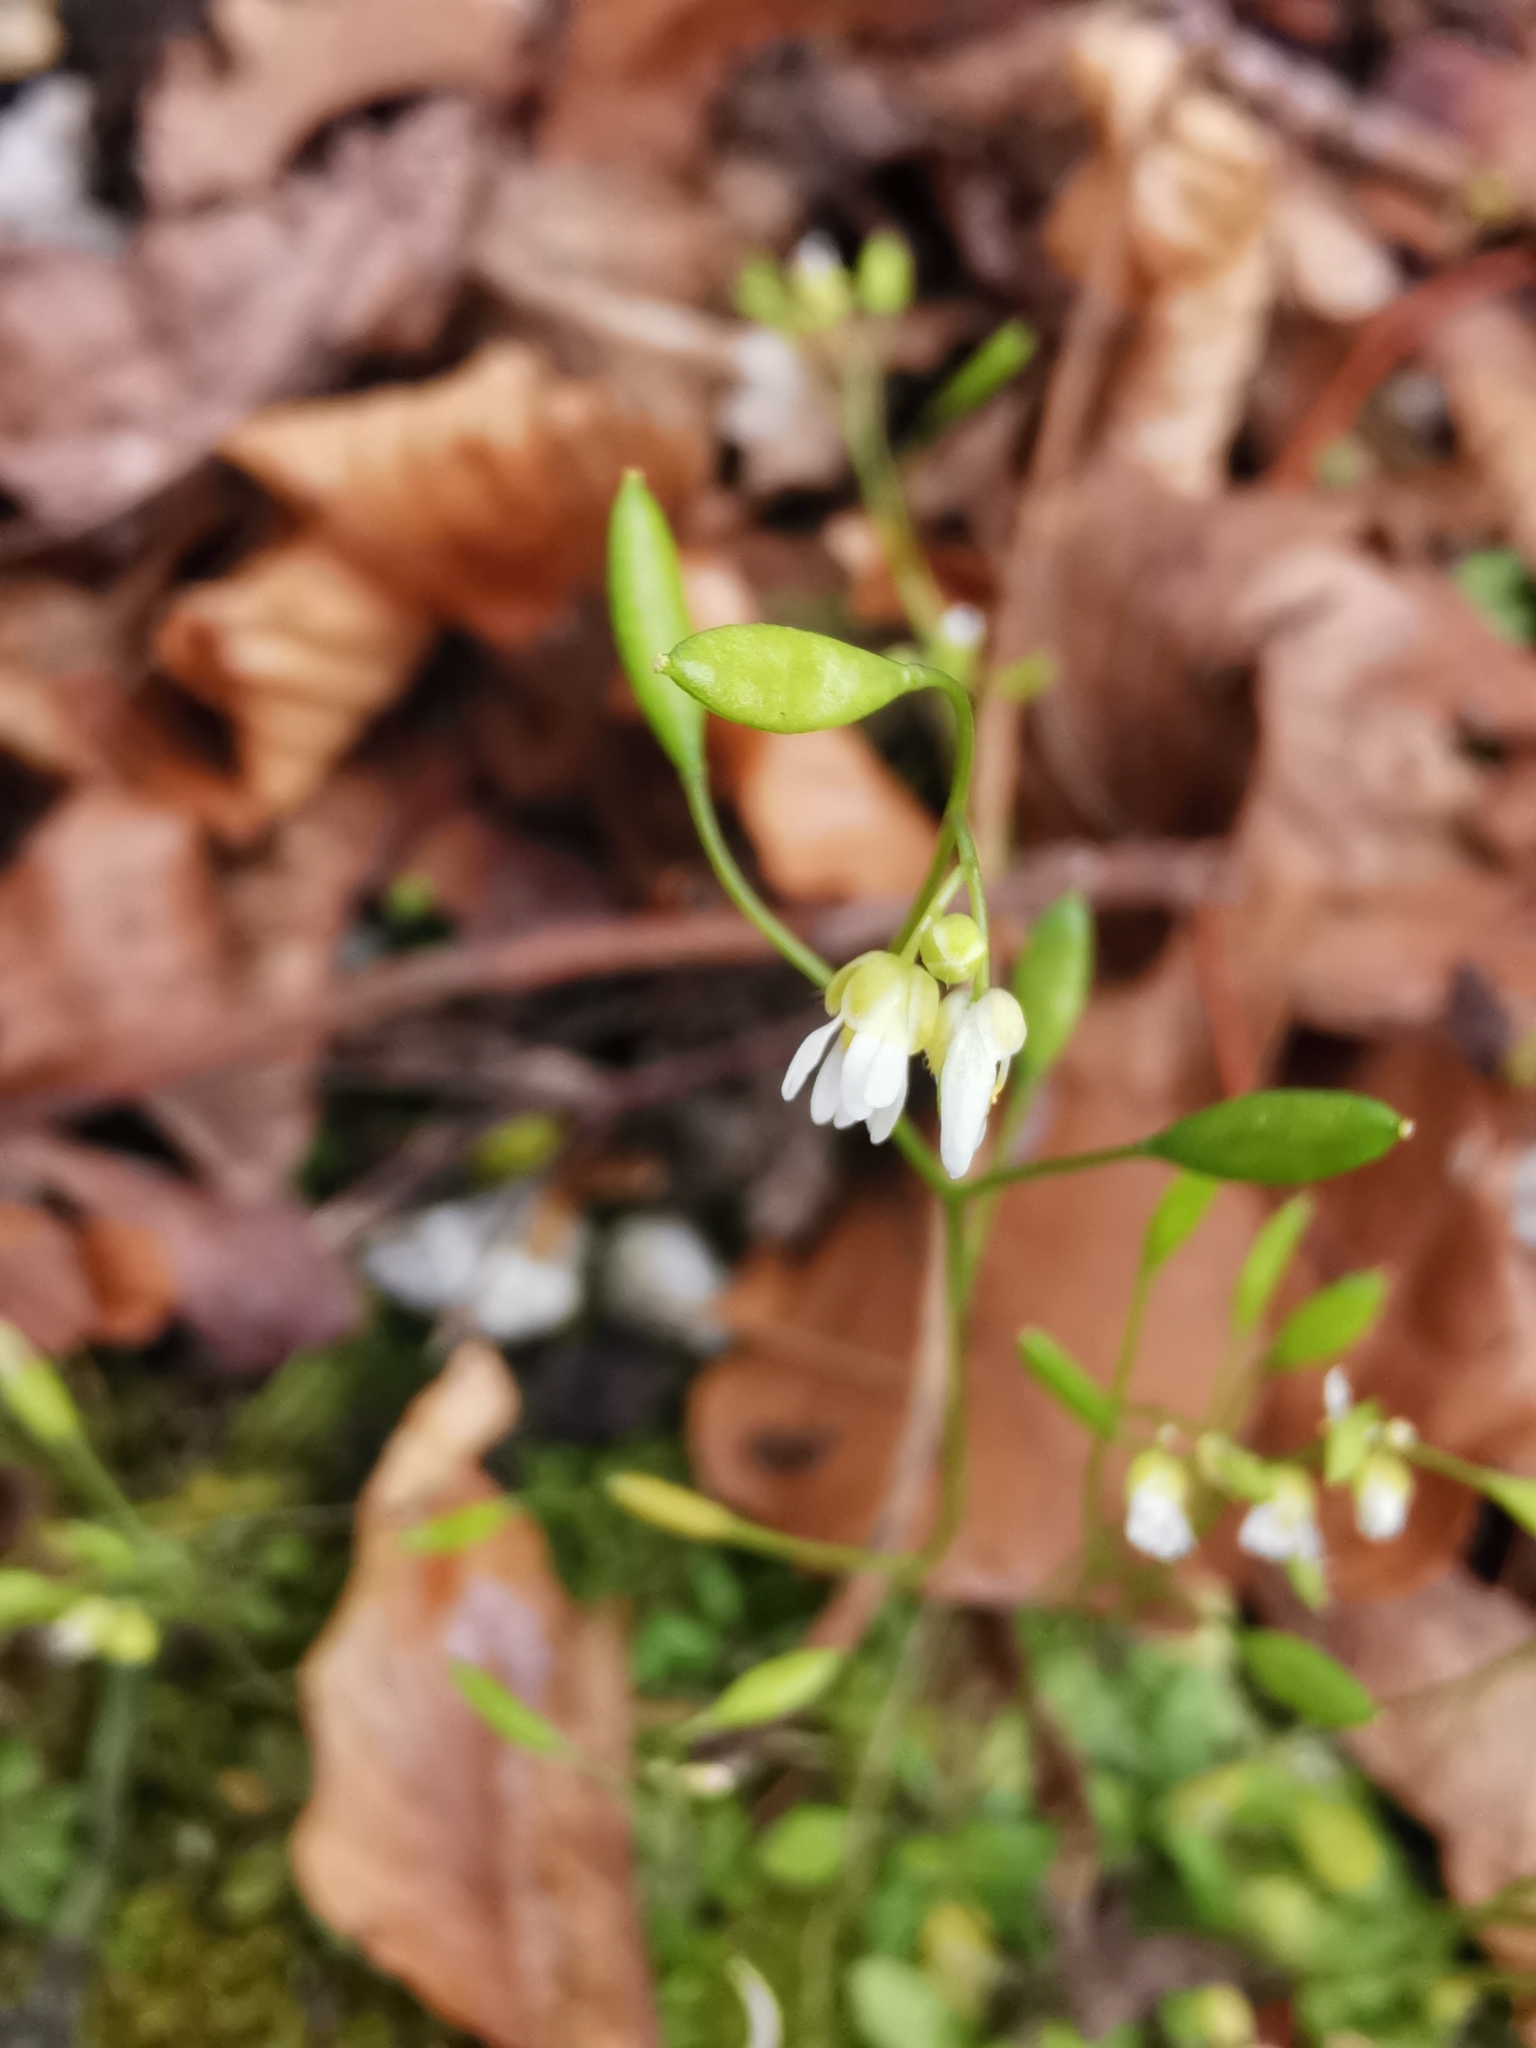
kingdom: Plantae
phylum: Tracheophyta
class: Magnoliopsida
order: Brassicales
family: Brassicaceae
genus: Draba
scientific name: Draba verna
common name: Spring draba
